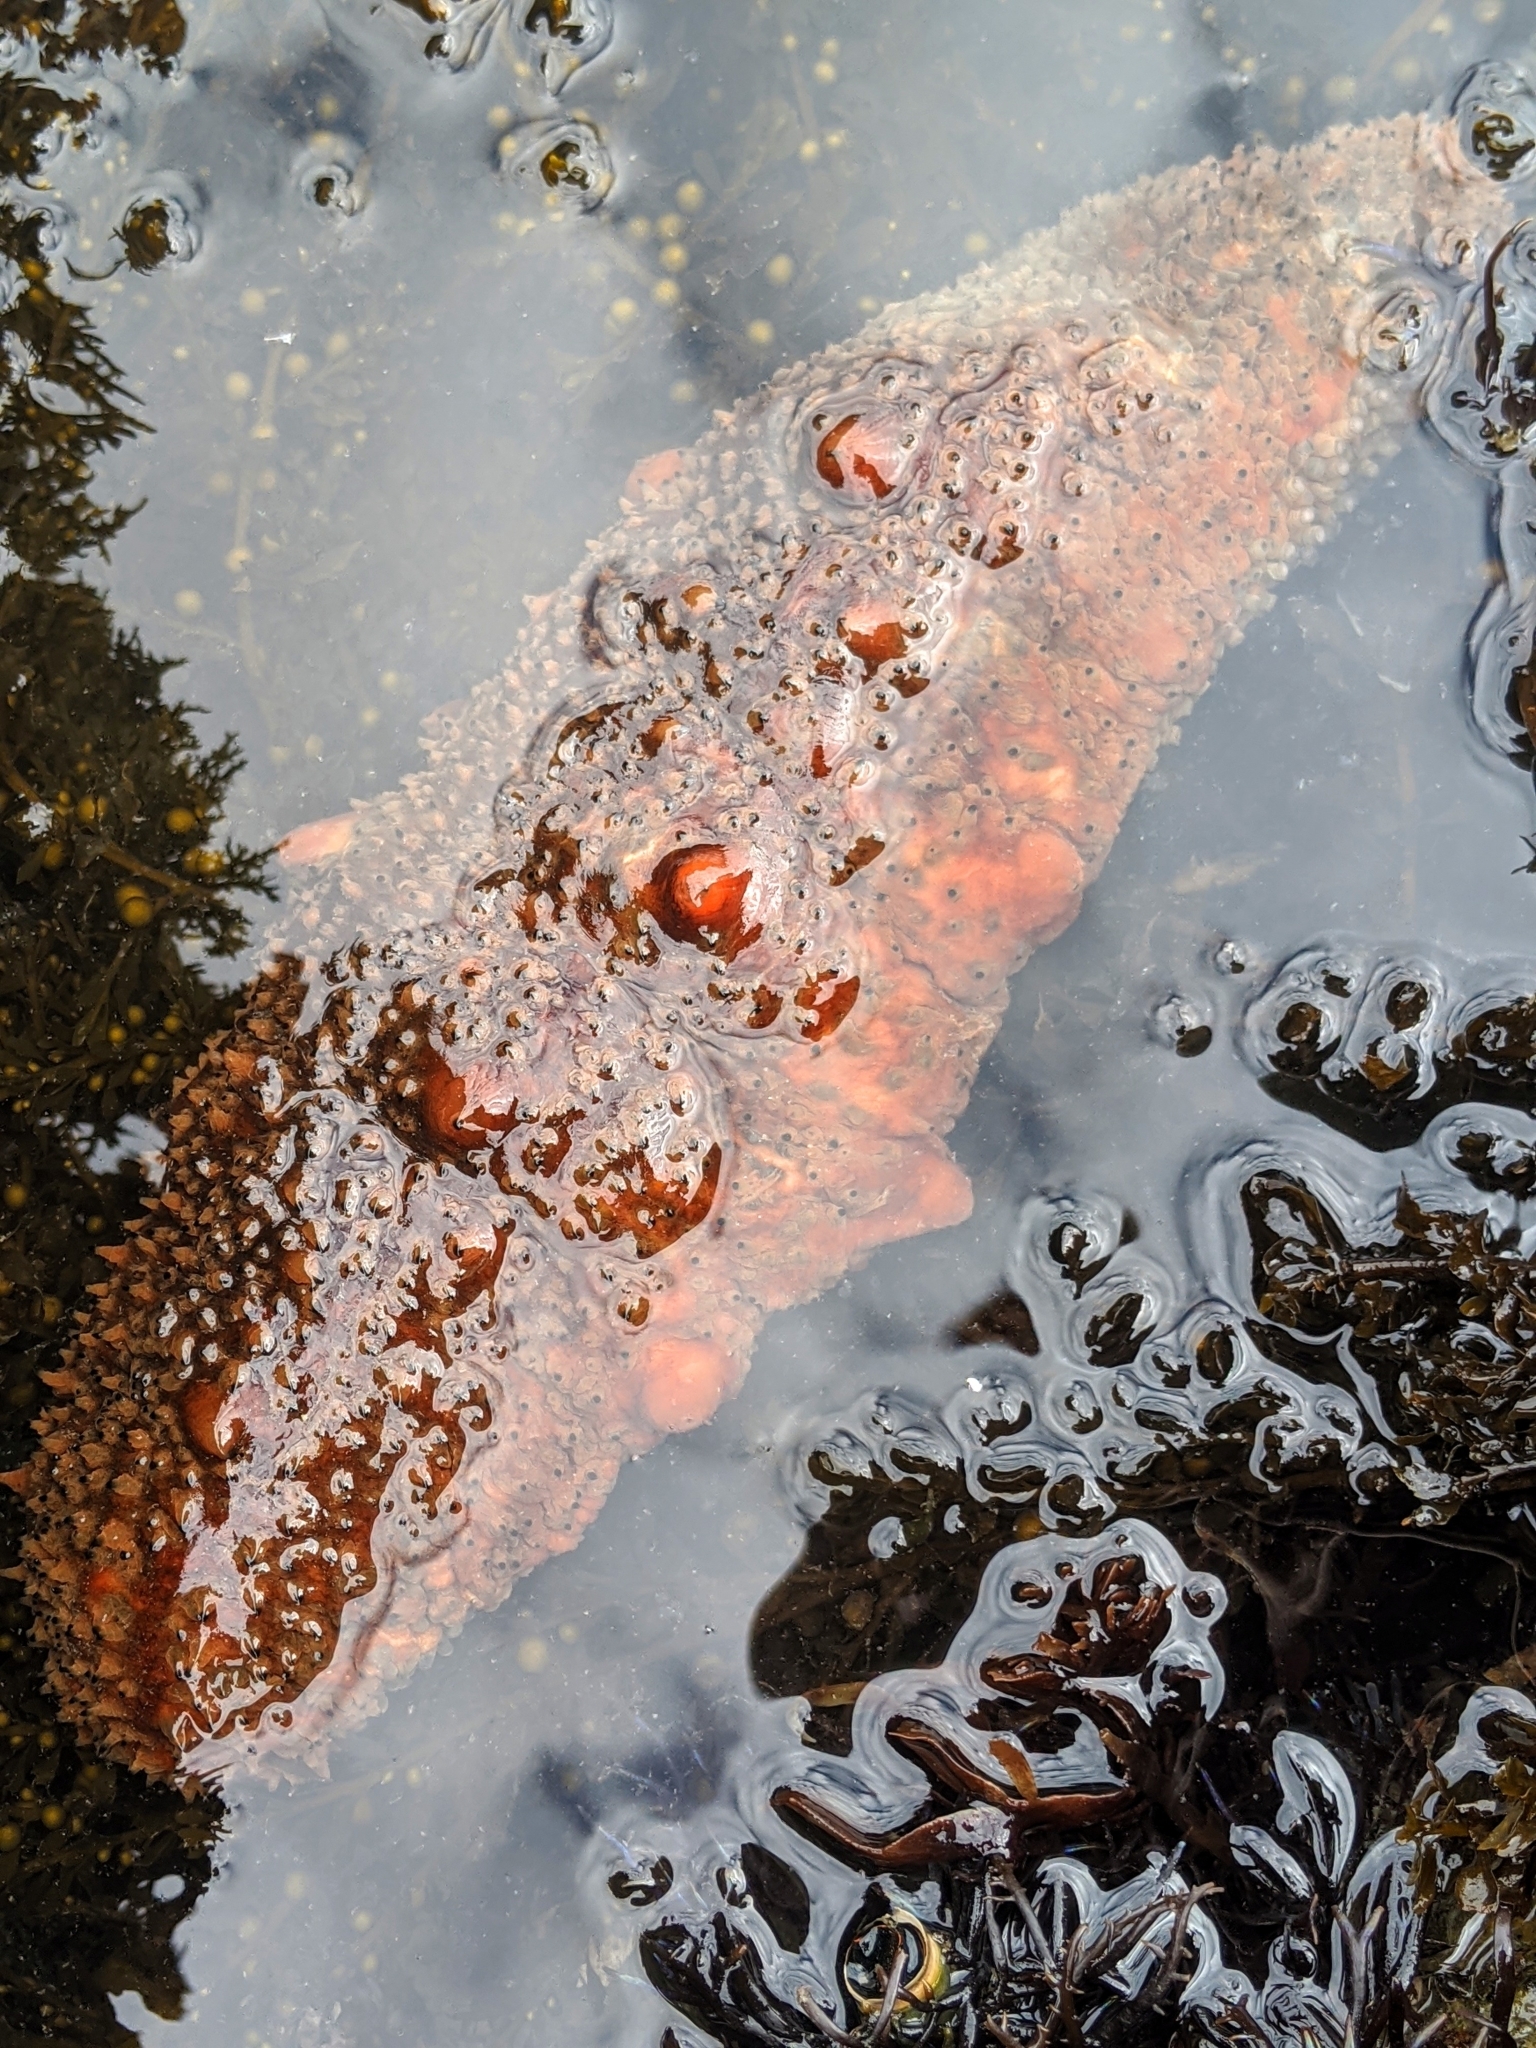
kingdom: Animalia
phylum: Echinodermata
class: Holothuroidea
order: Synallactida
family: Stichopodidae
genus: Apostichopus
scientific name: Apostichopus parvimensis
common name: Warty sea cucumber
